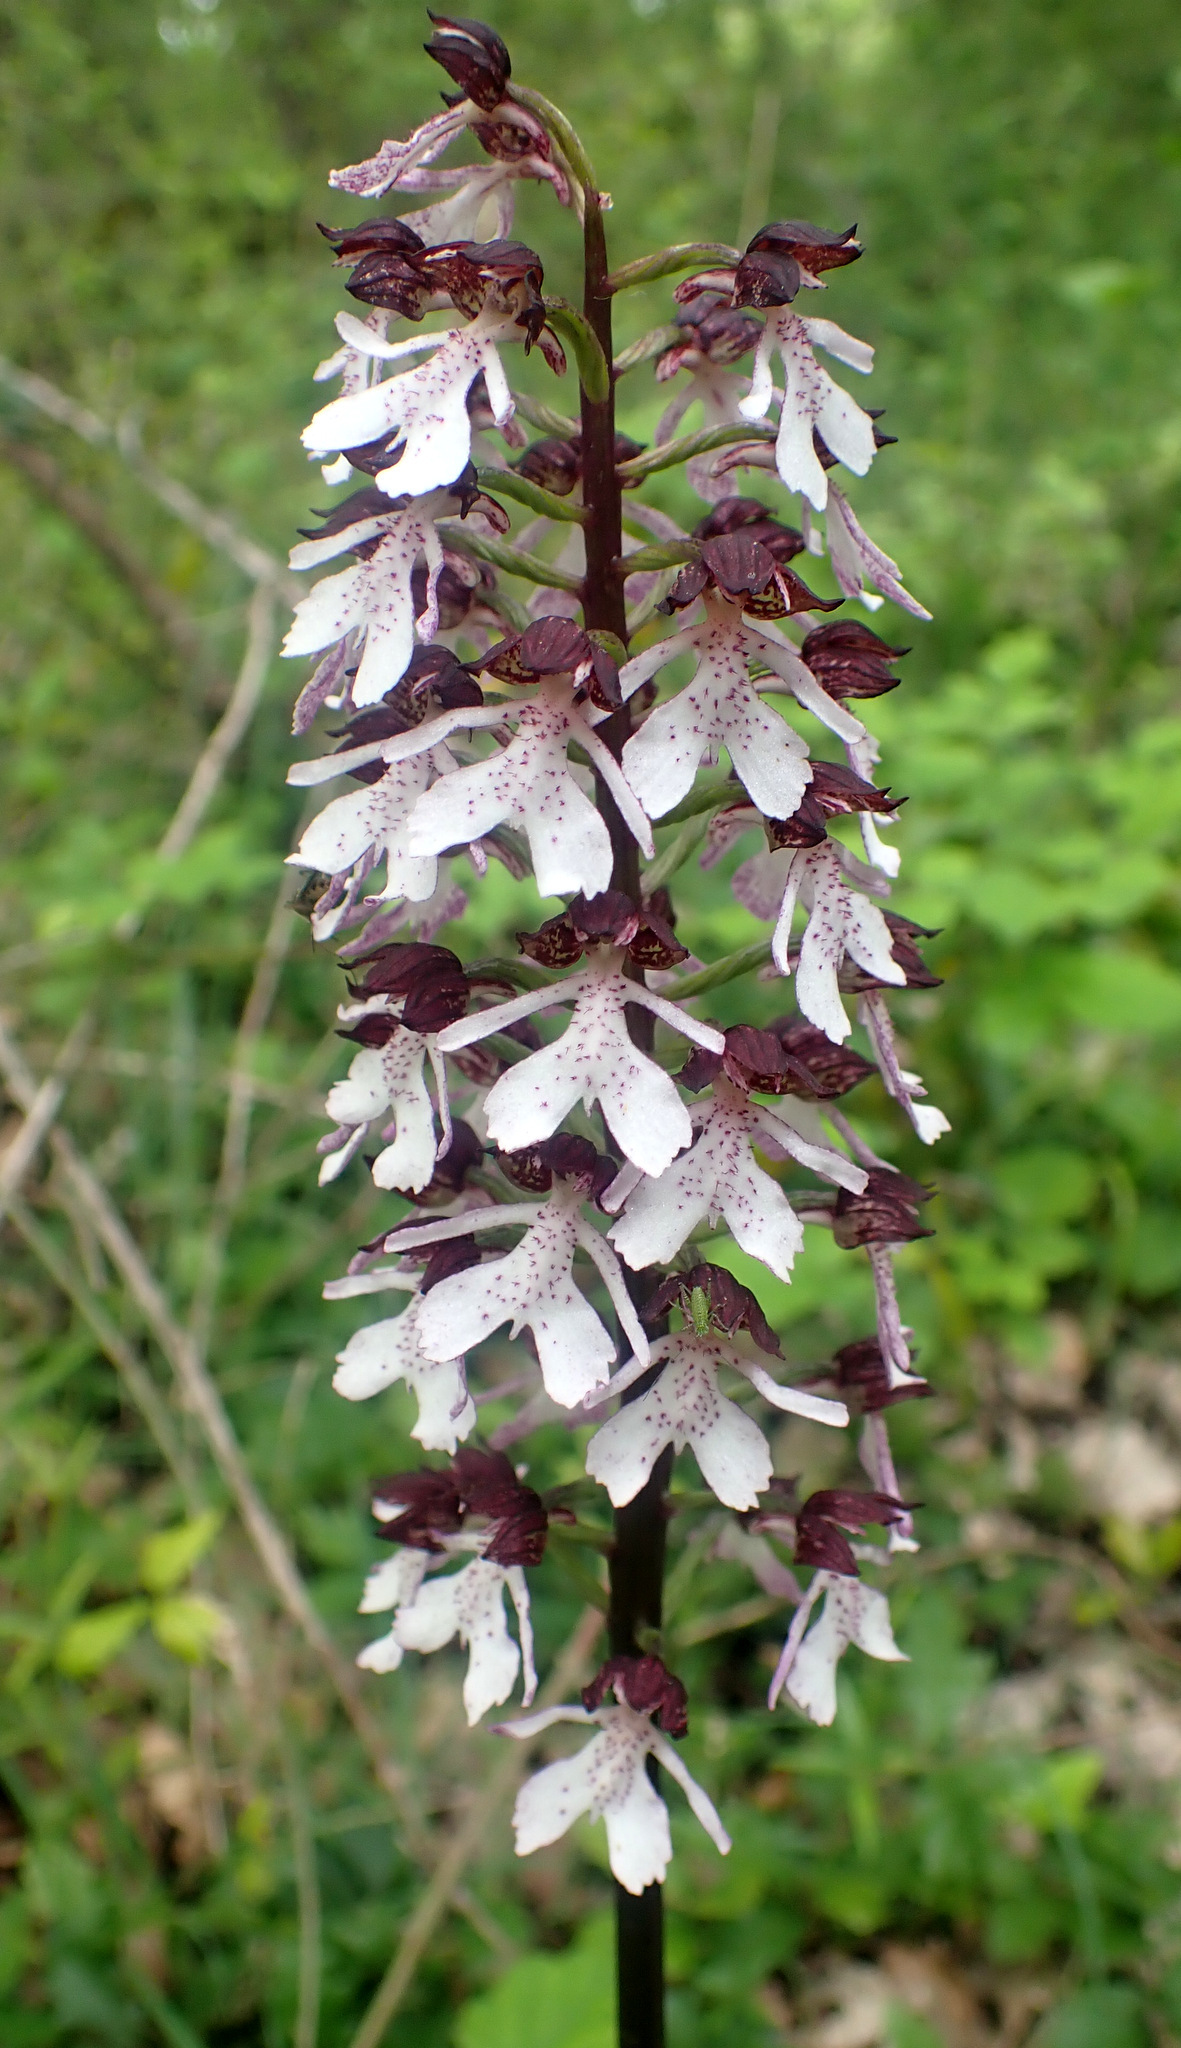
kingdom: Plantae
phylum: Tracheophyta
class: Liliopsida
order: Asparagales
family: Orchidaceae
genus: Orchis
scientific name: Orchis purpurea
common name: Lady orchid
